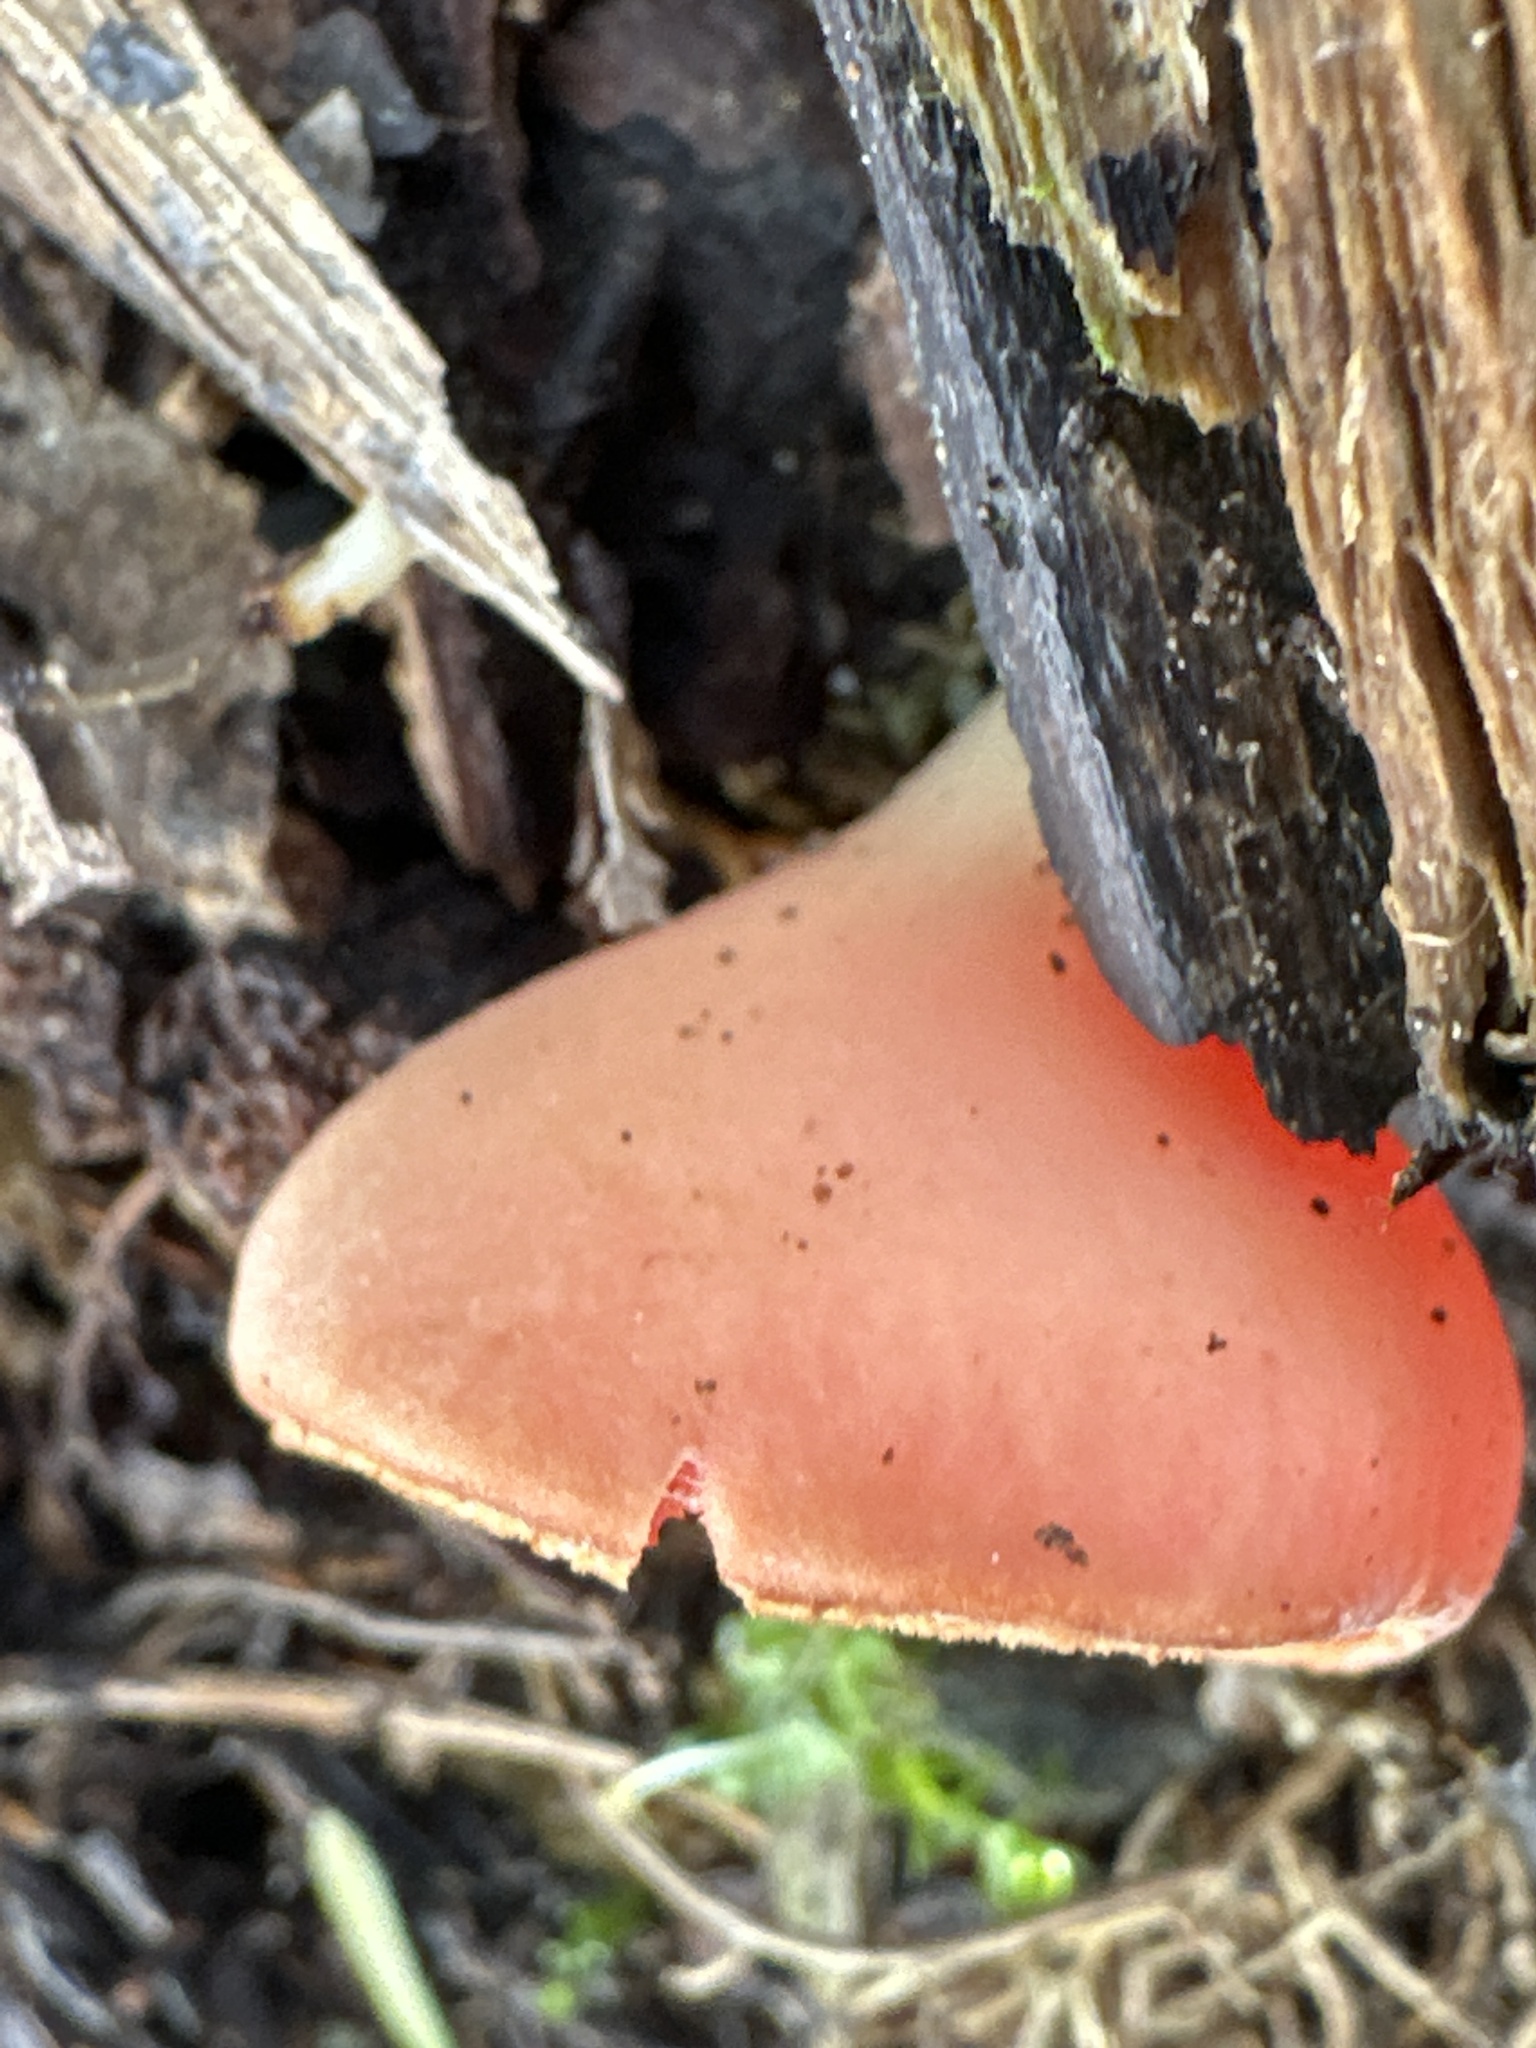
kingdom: Fungi
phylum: Ascomycota
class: Pezizomycetes
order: Pezizales
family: Sarcoscyphaceae
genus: Sarcoscypha
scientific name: Sarcoscypha
